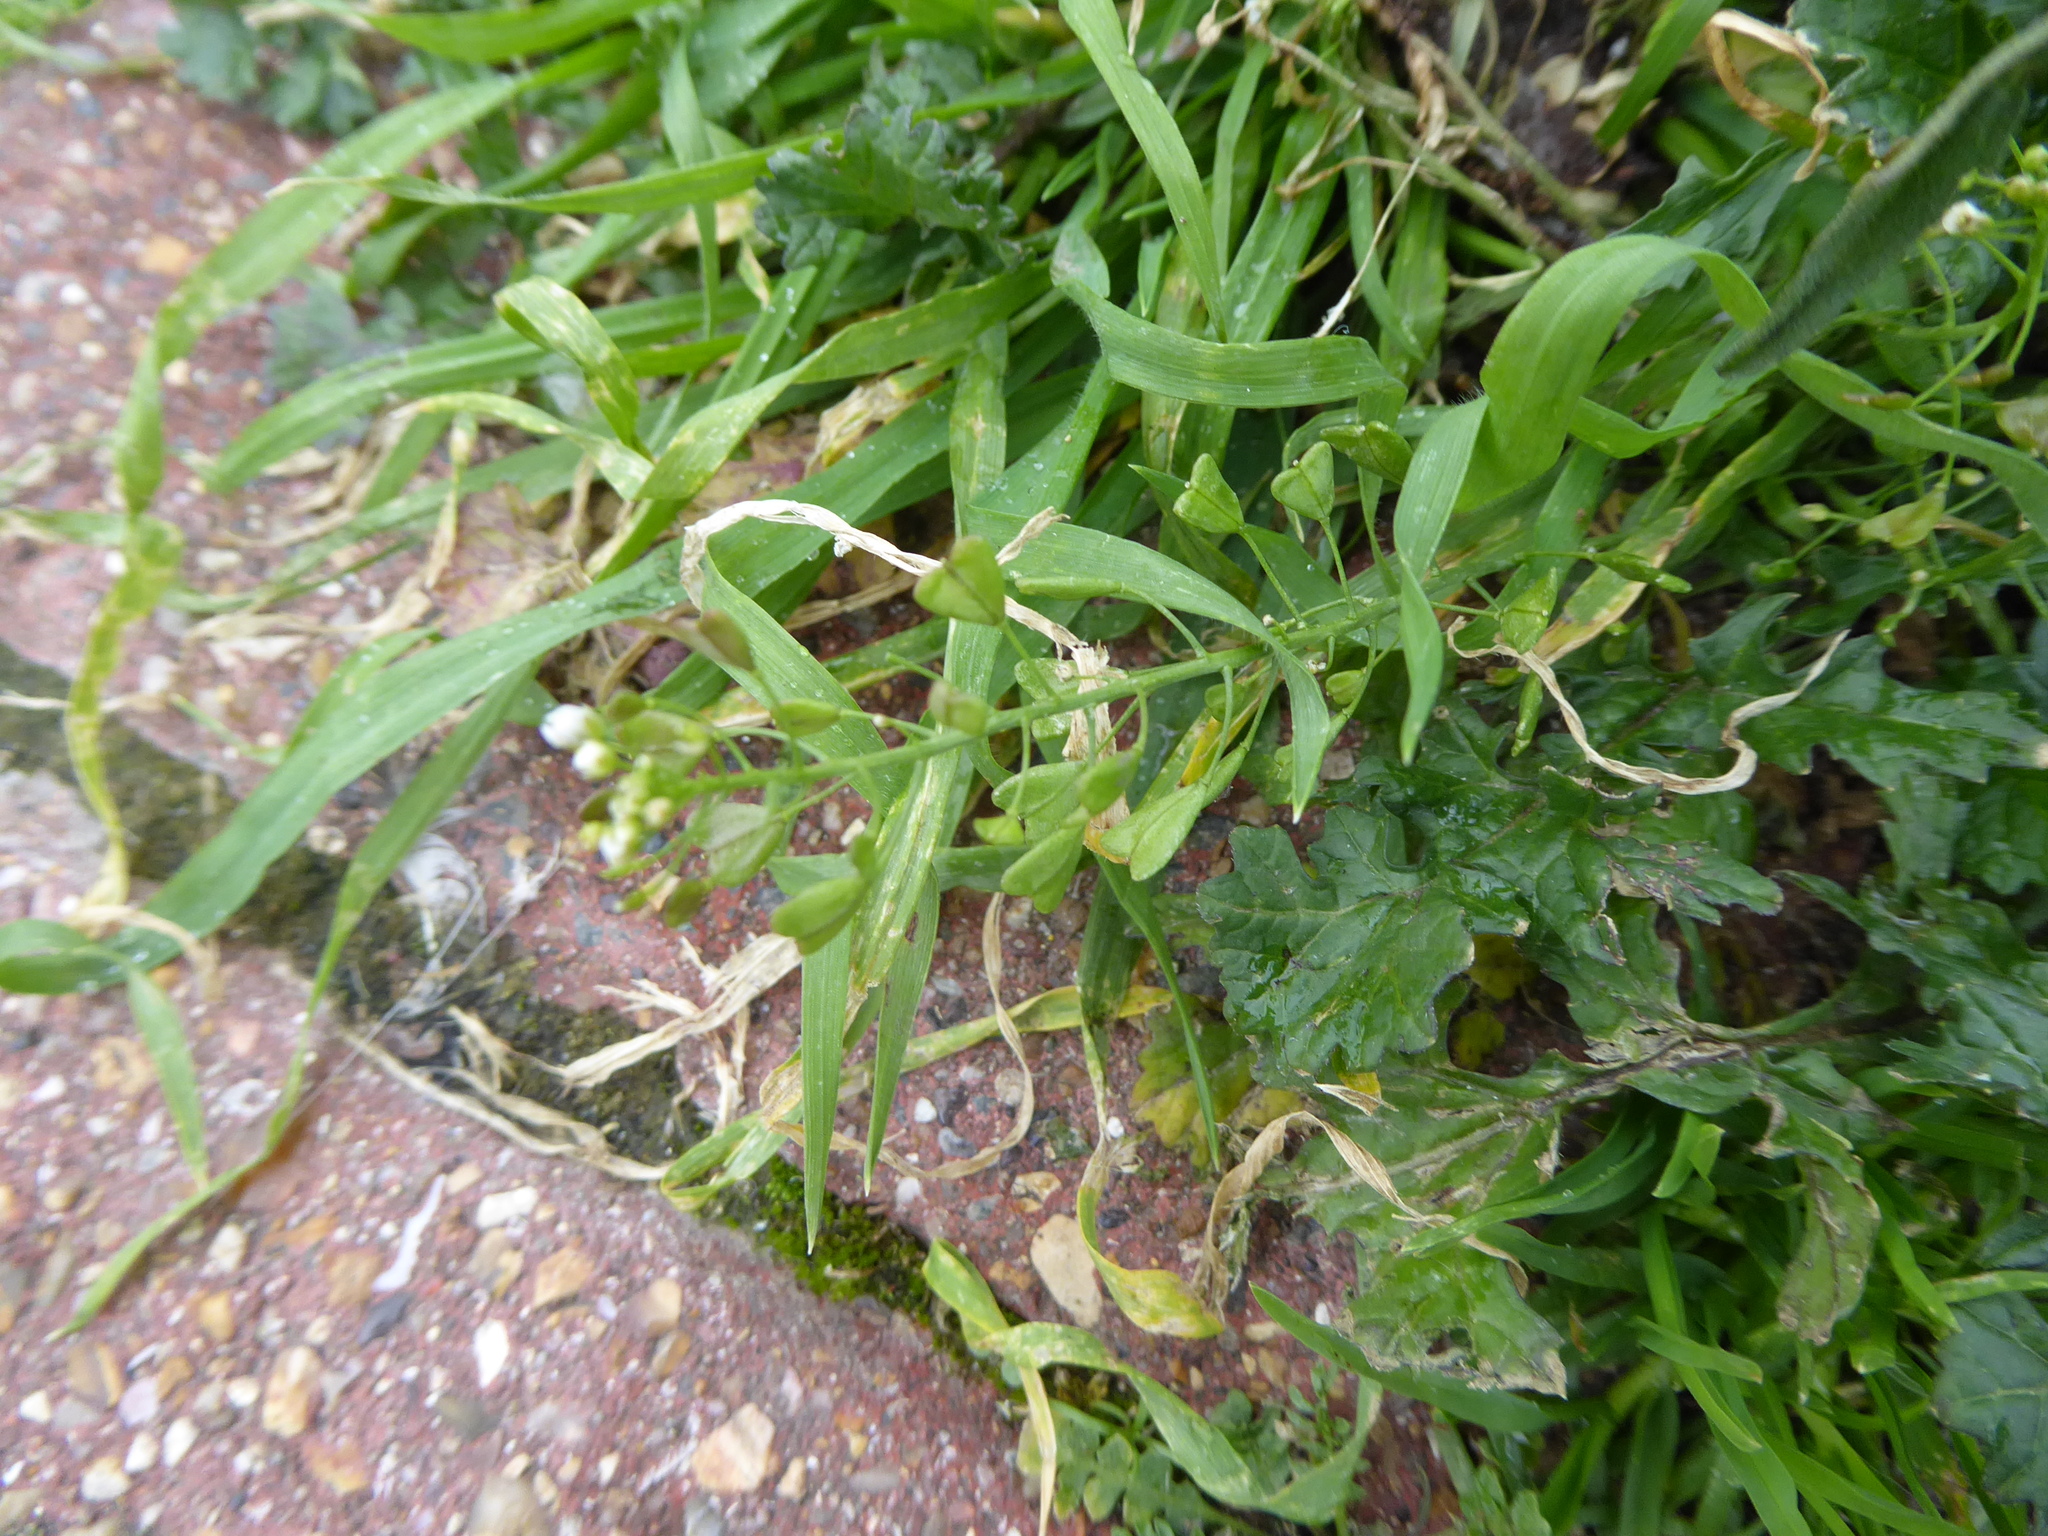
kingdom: Plantae
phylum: Tracheophyta
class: Magnoliopsida
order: Brassicales
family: Brassicaceae
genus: Capsella
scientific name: Capsella bursa-pastoris
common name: Shepherd's purse
